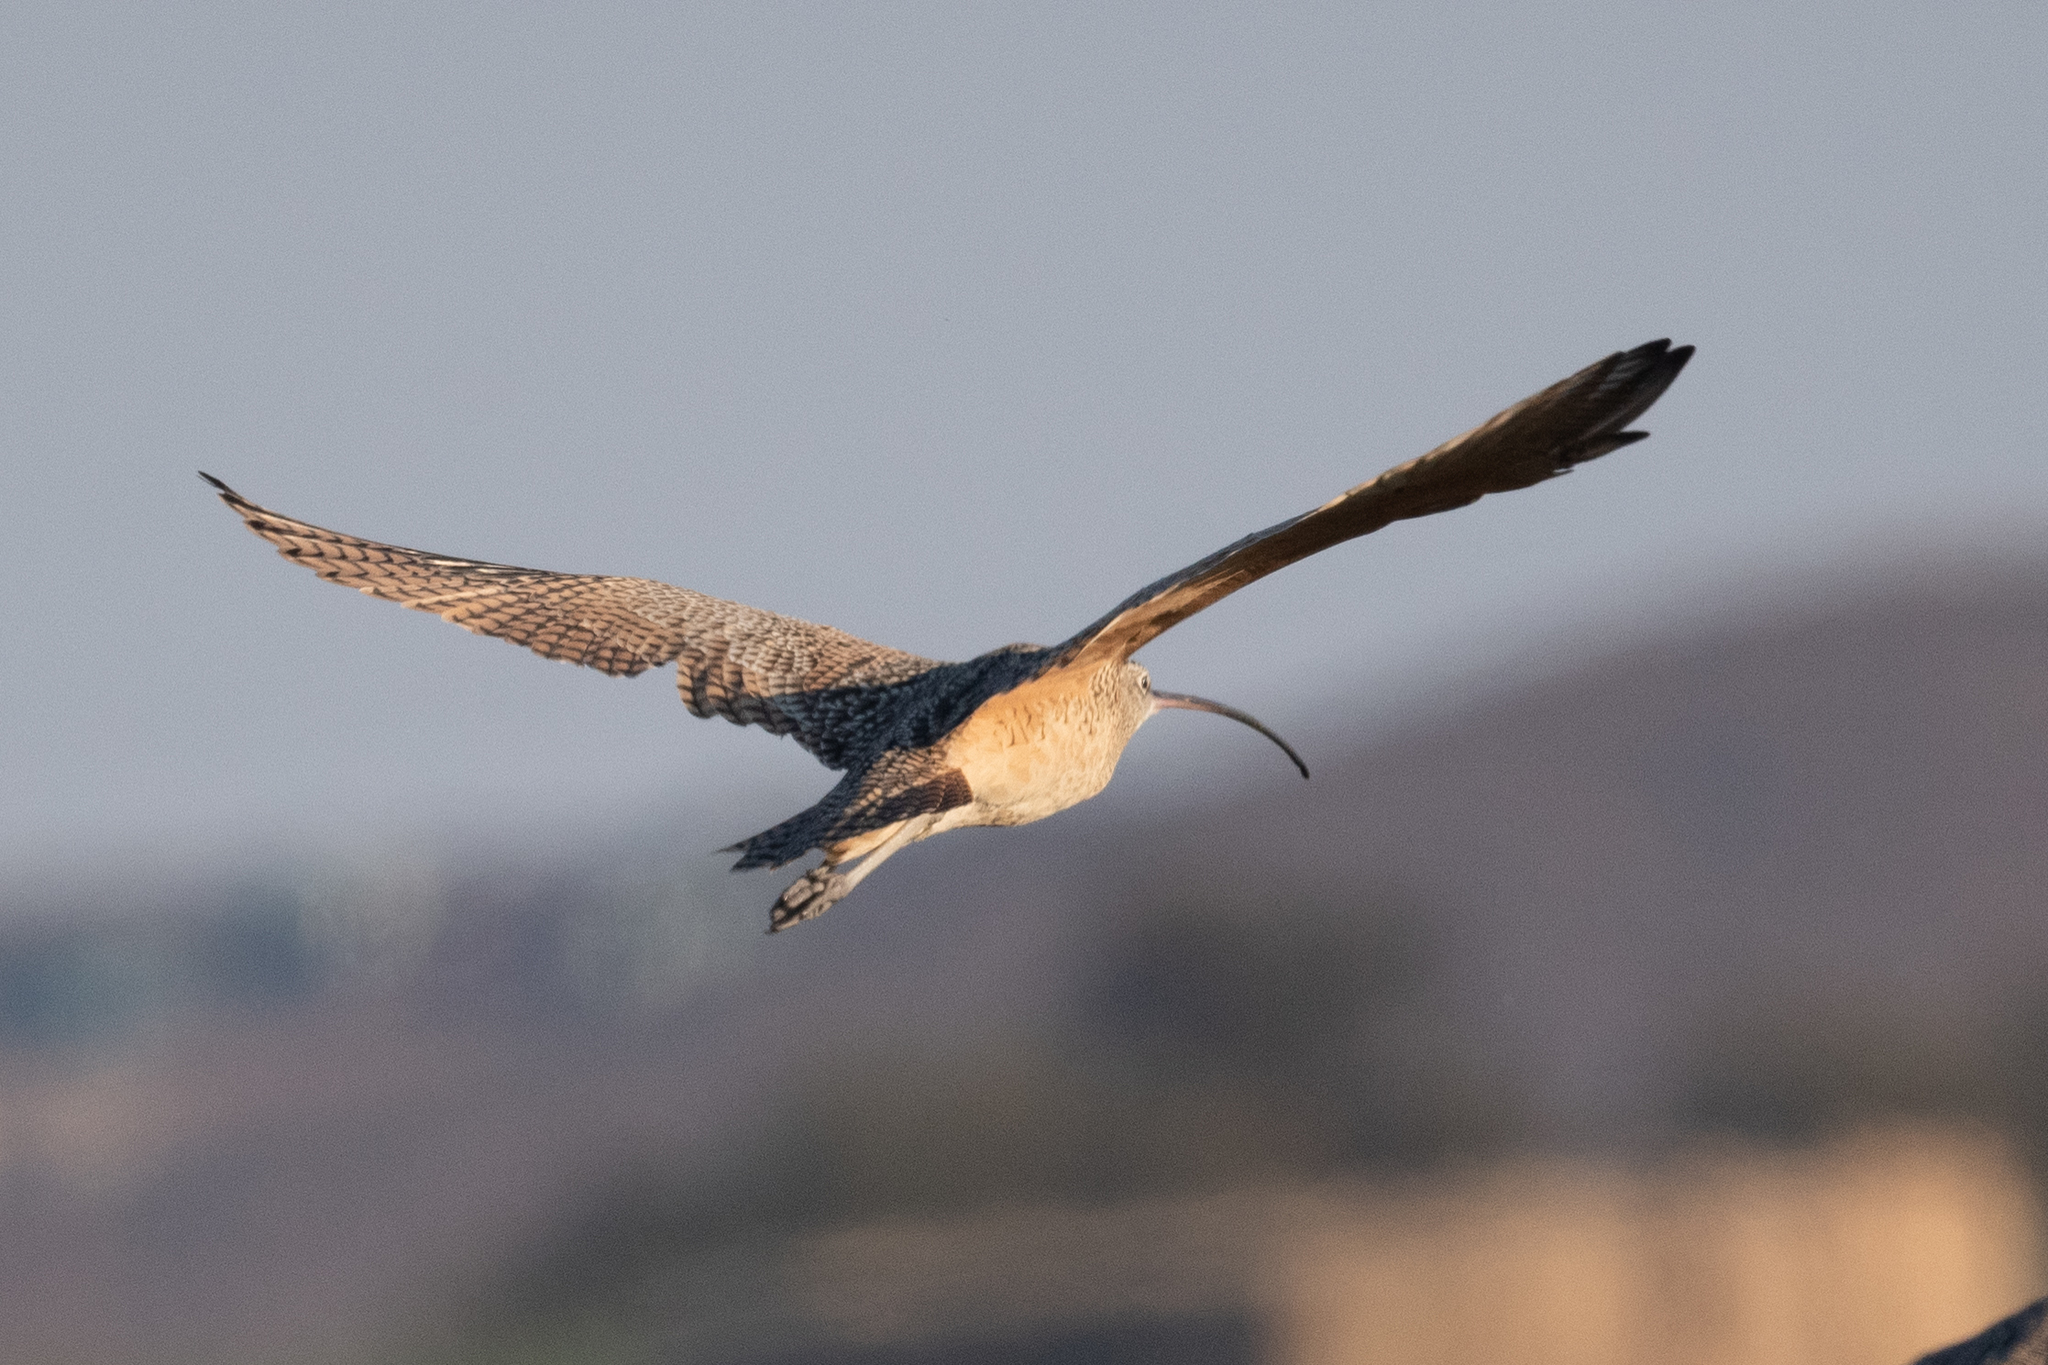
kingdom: Animalia
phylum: Chordata
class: Aves
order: Charadriiformes
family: Scolopacidae
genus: Numenius
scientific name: Numenius americanus
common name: Long-billed curlew
